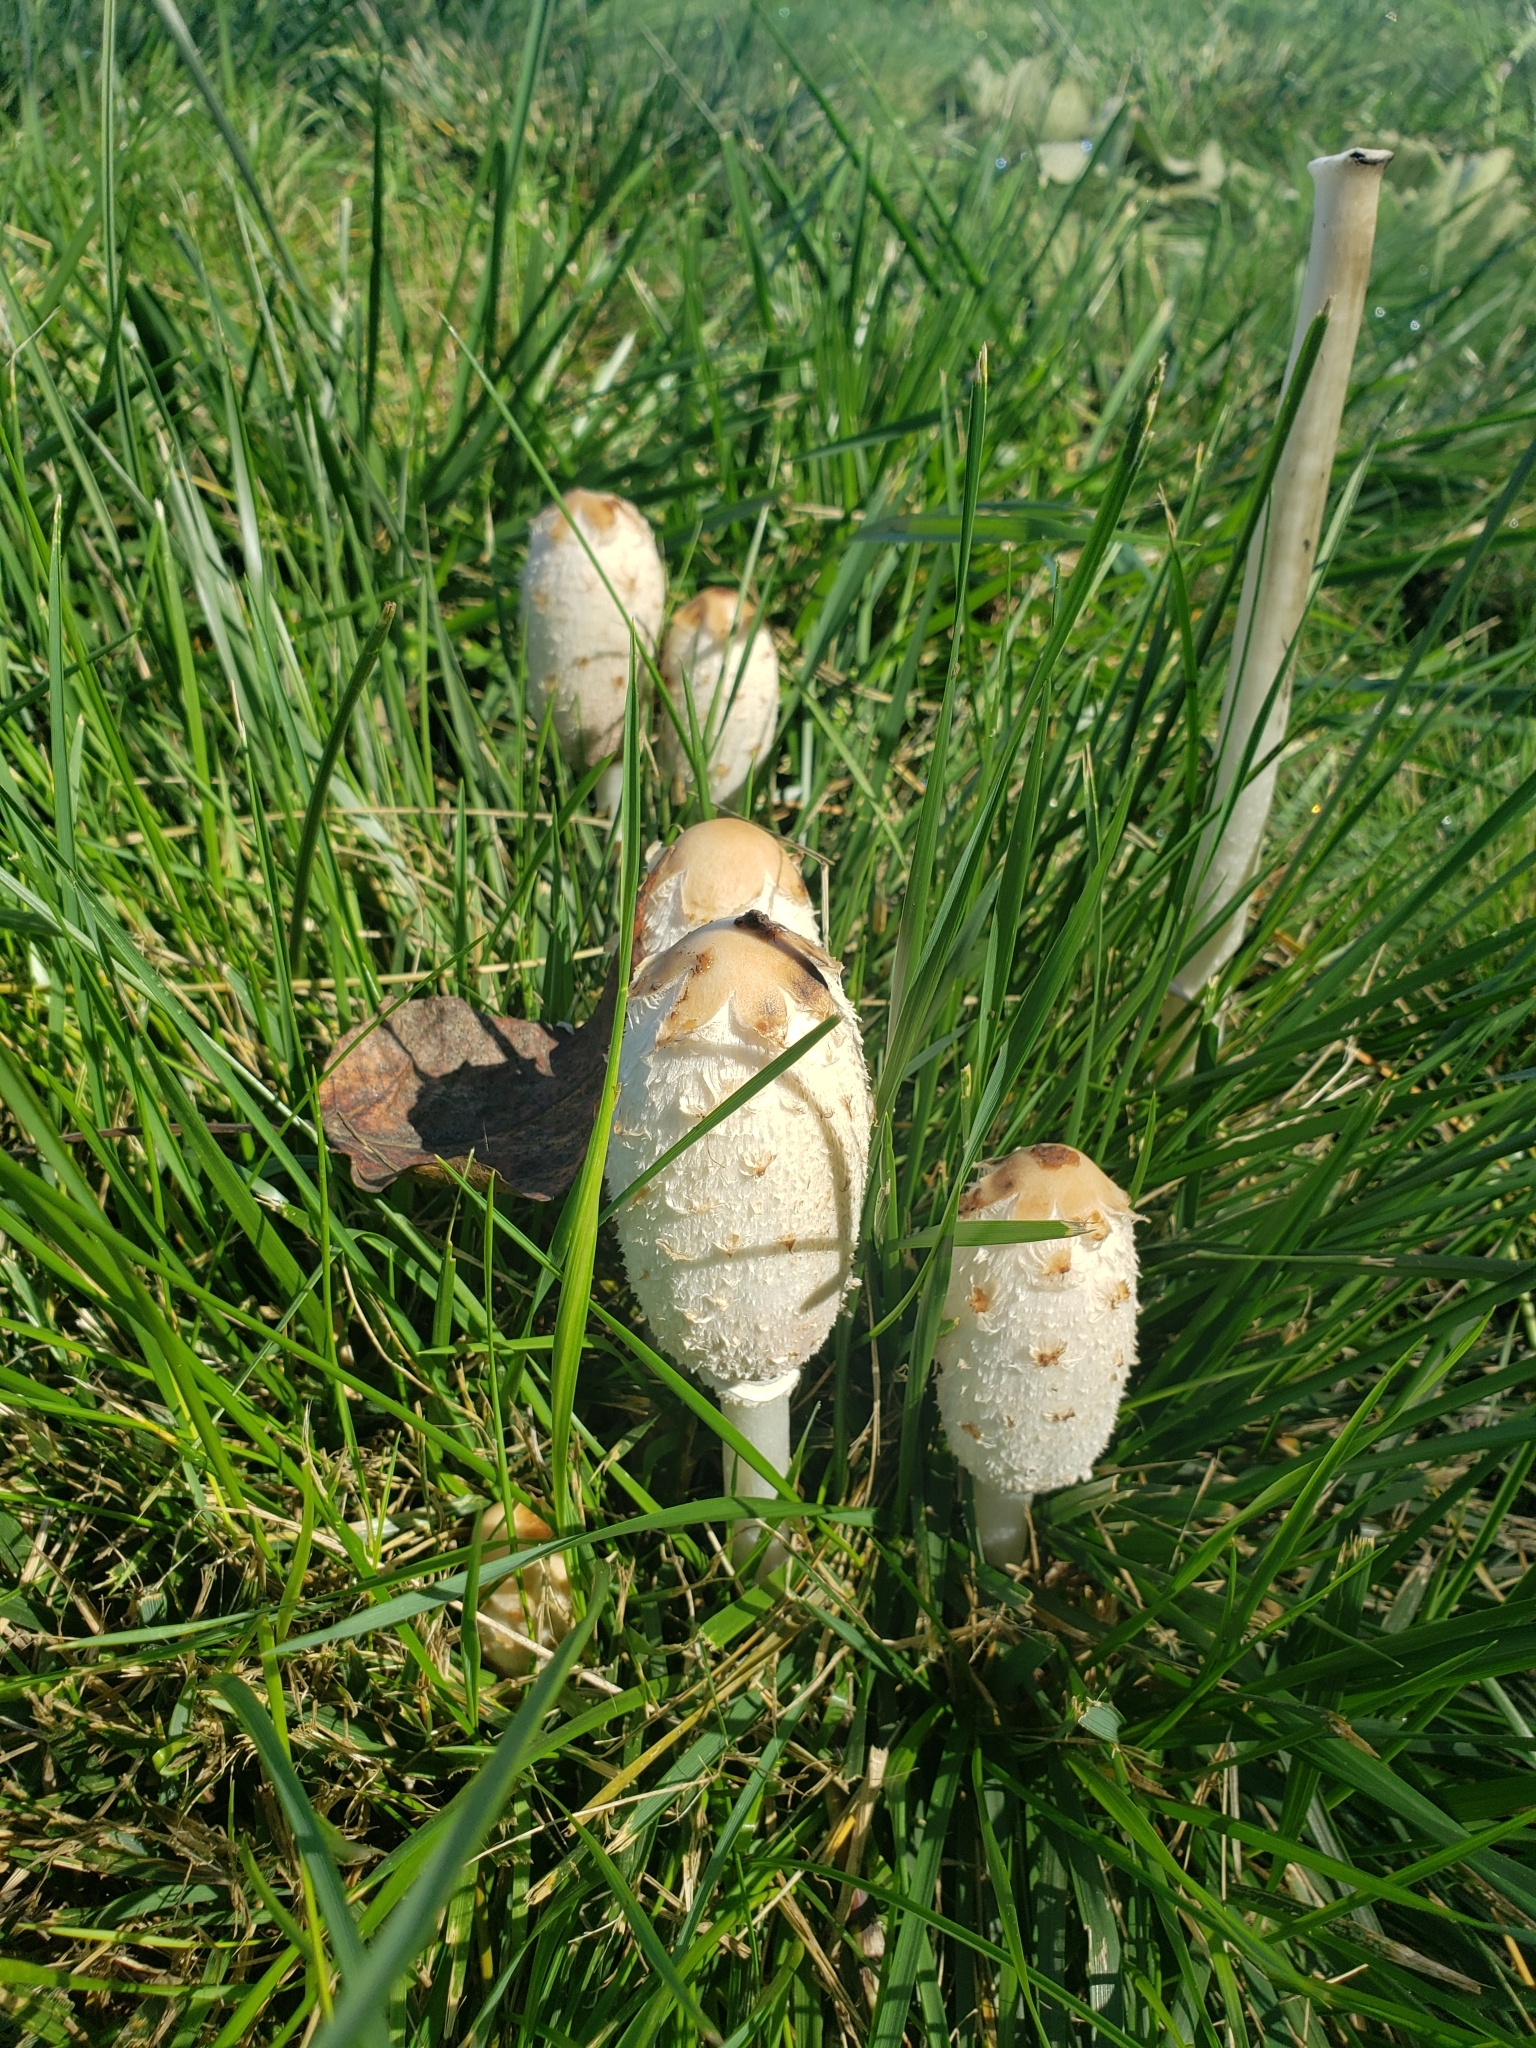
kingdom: Fungi
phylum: Basidiomycota
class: Agaricomycetes
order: Agaricales
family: Agaricaceae
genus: Coprinus
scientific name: Coprinus comatus
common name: Lawyer's wig
